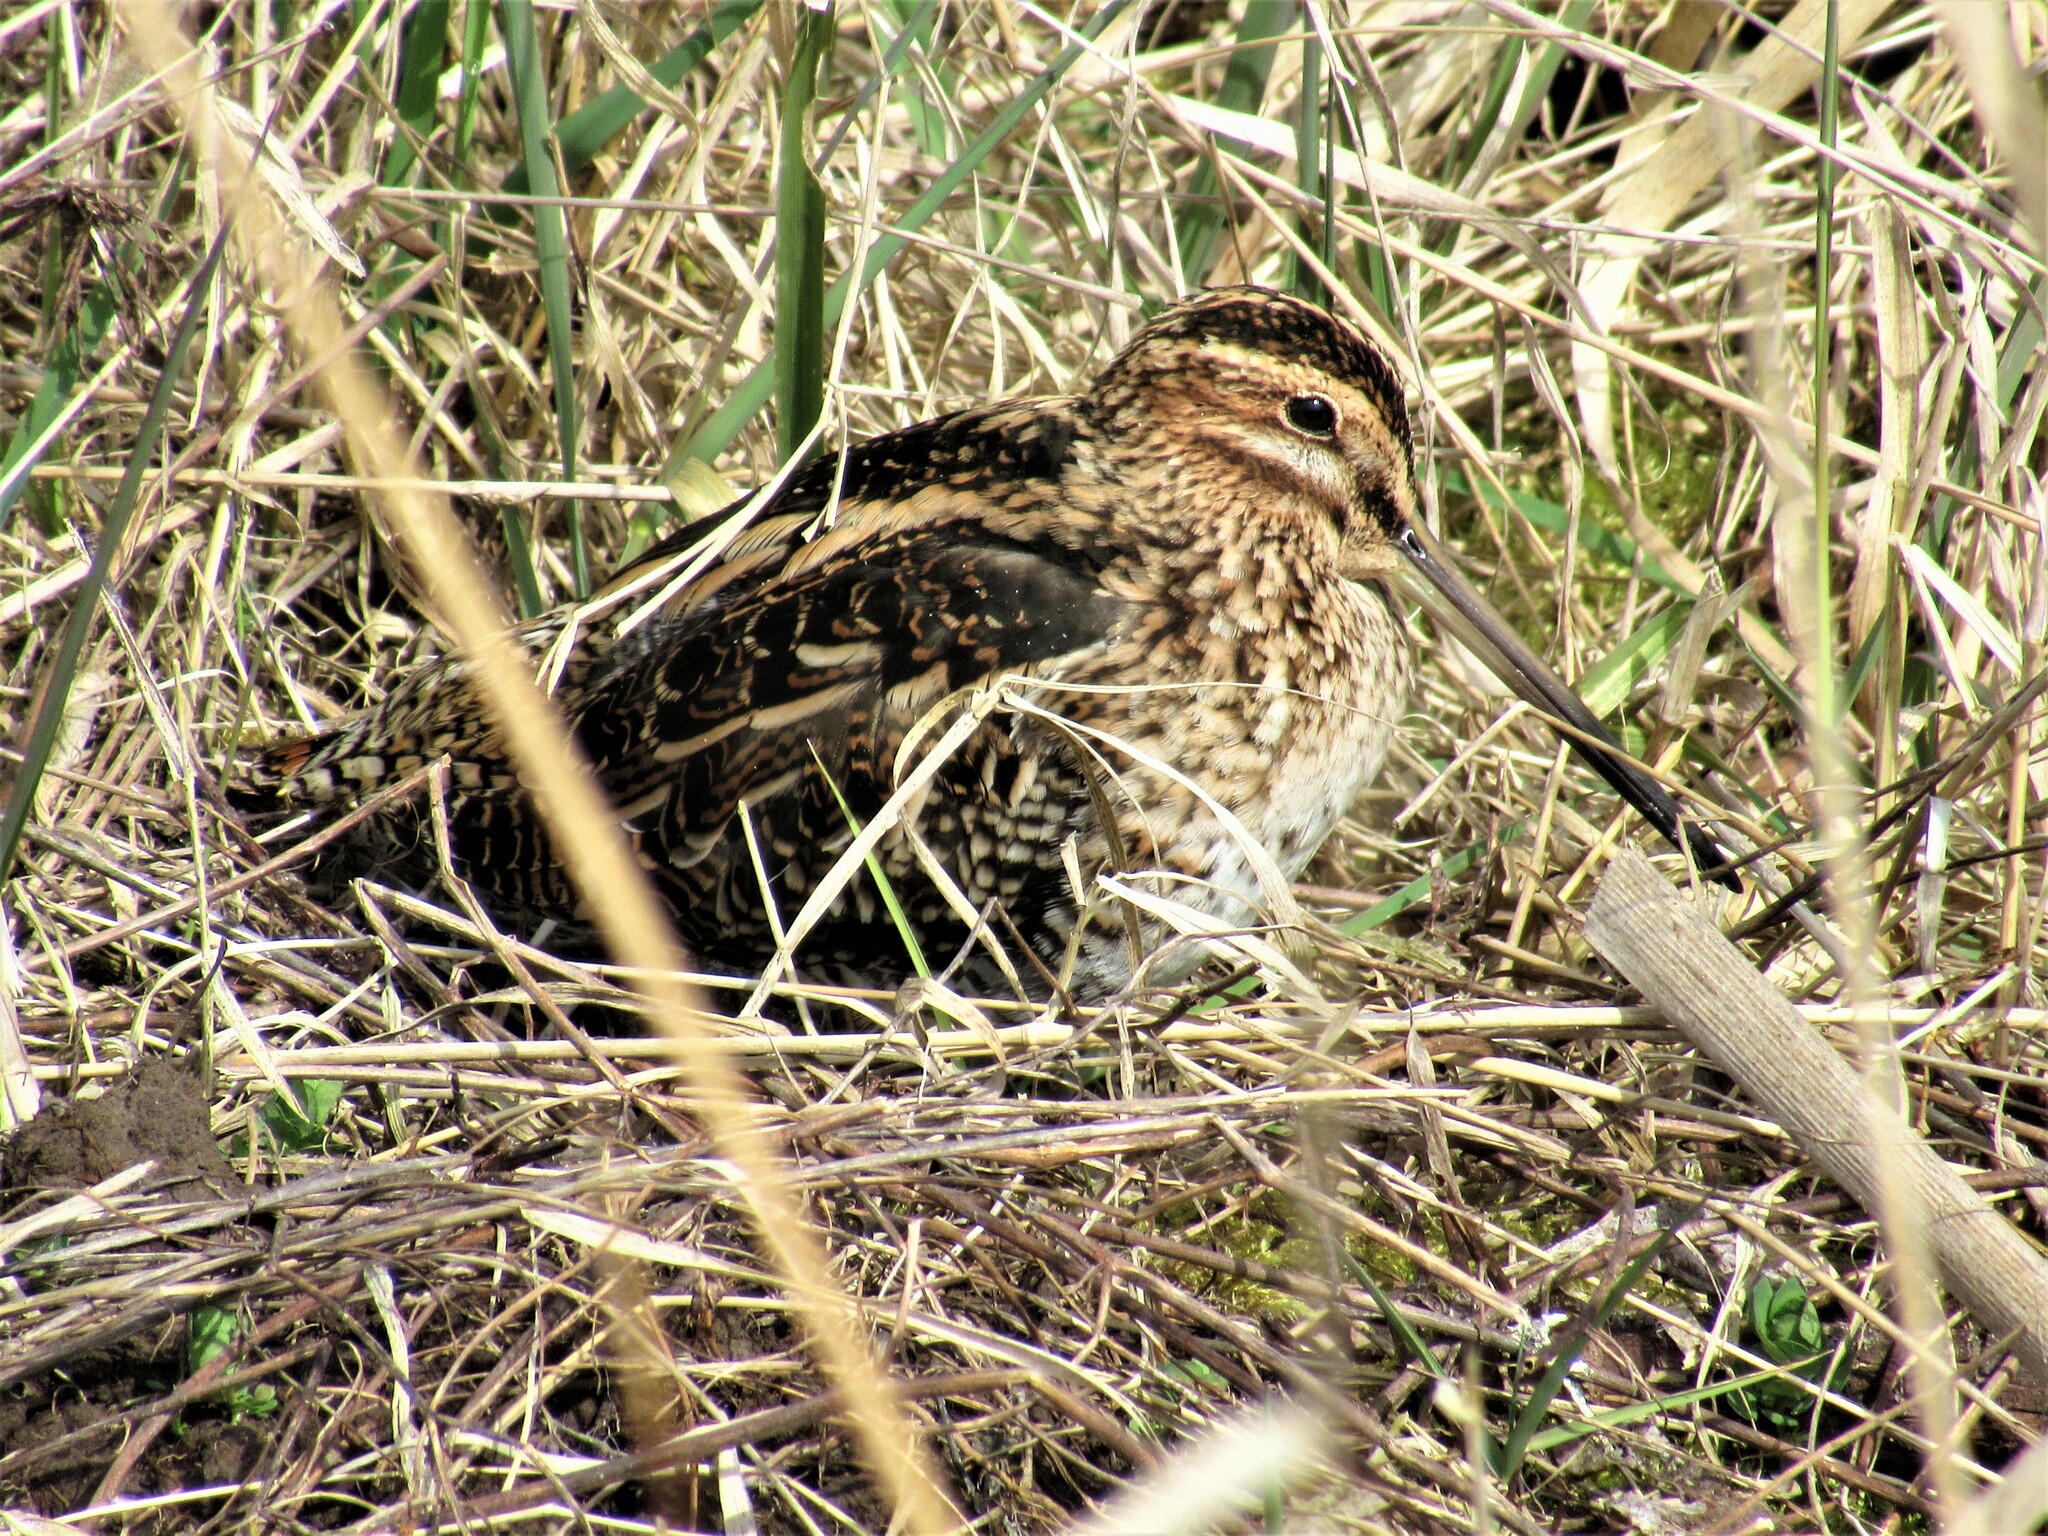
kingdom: Animalia
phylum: Chordata
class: Aves
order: Charadriiformes
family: Scolopacidae
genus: Gallinago
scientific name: Gallinago delicata
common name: Wilson's snipe
